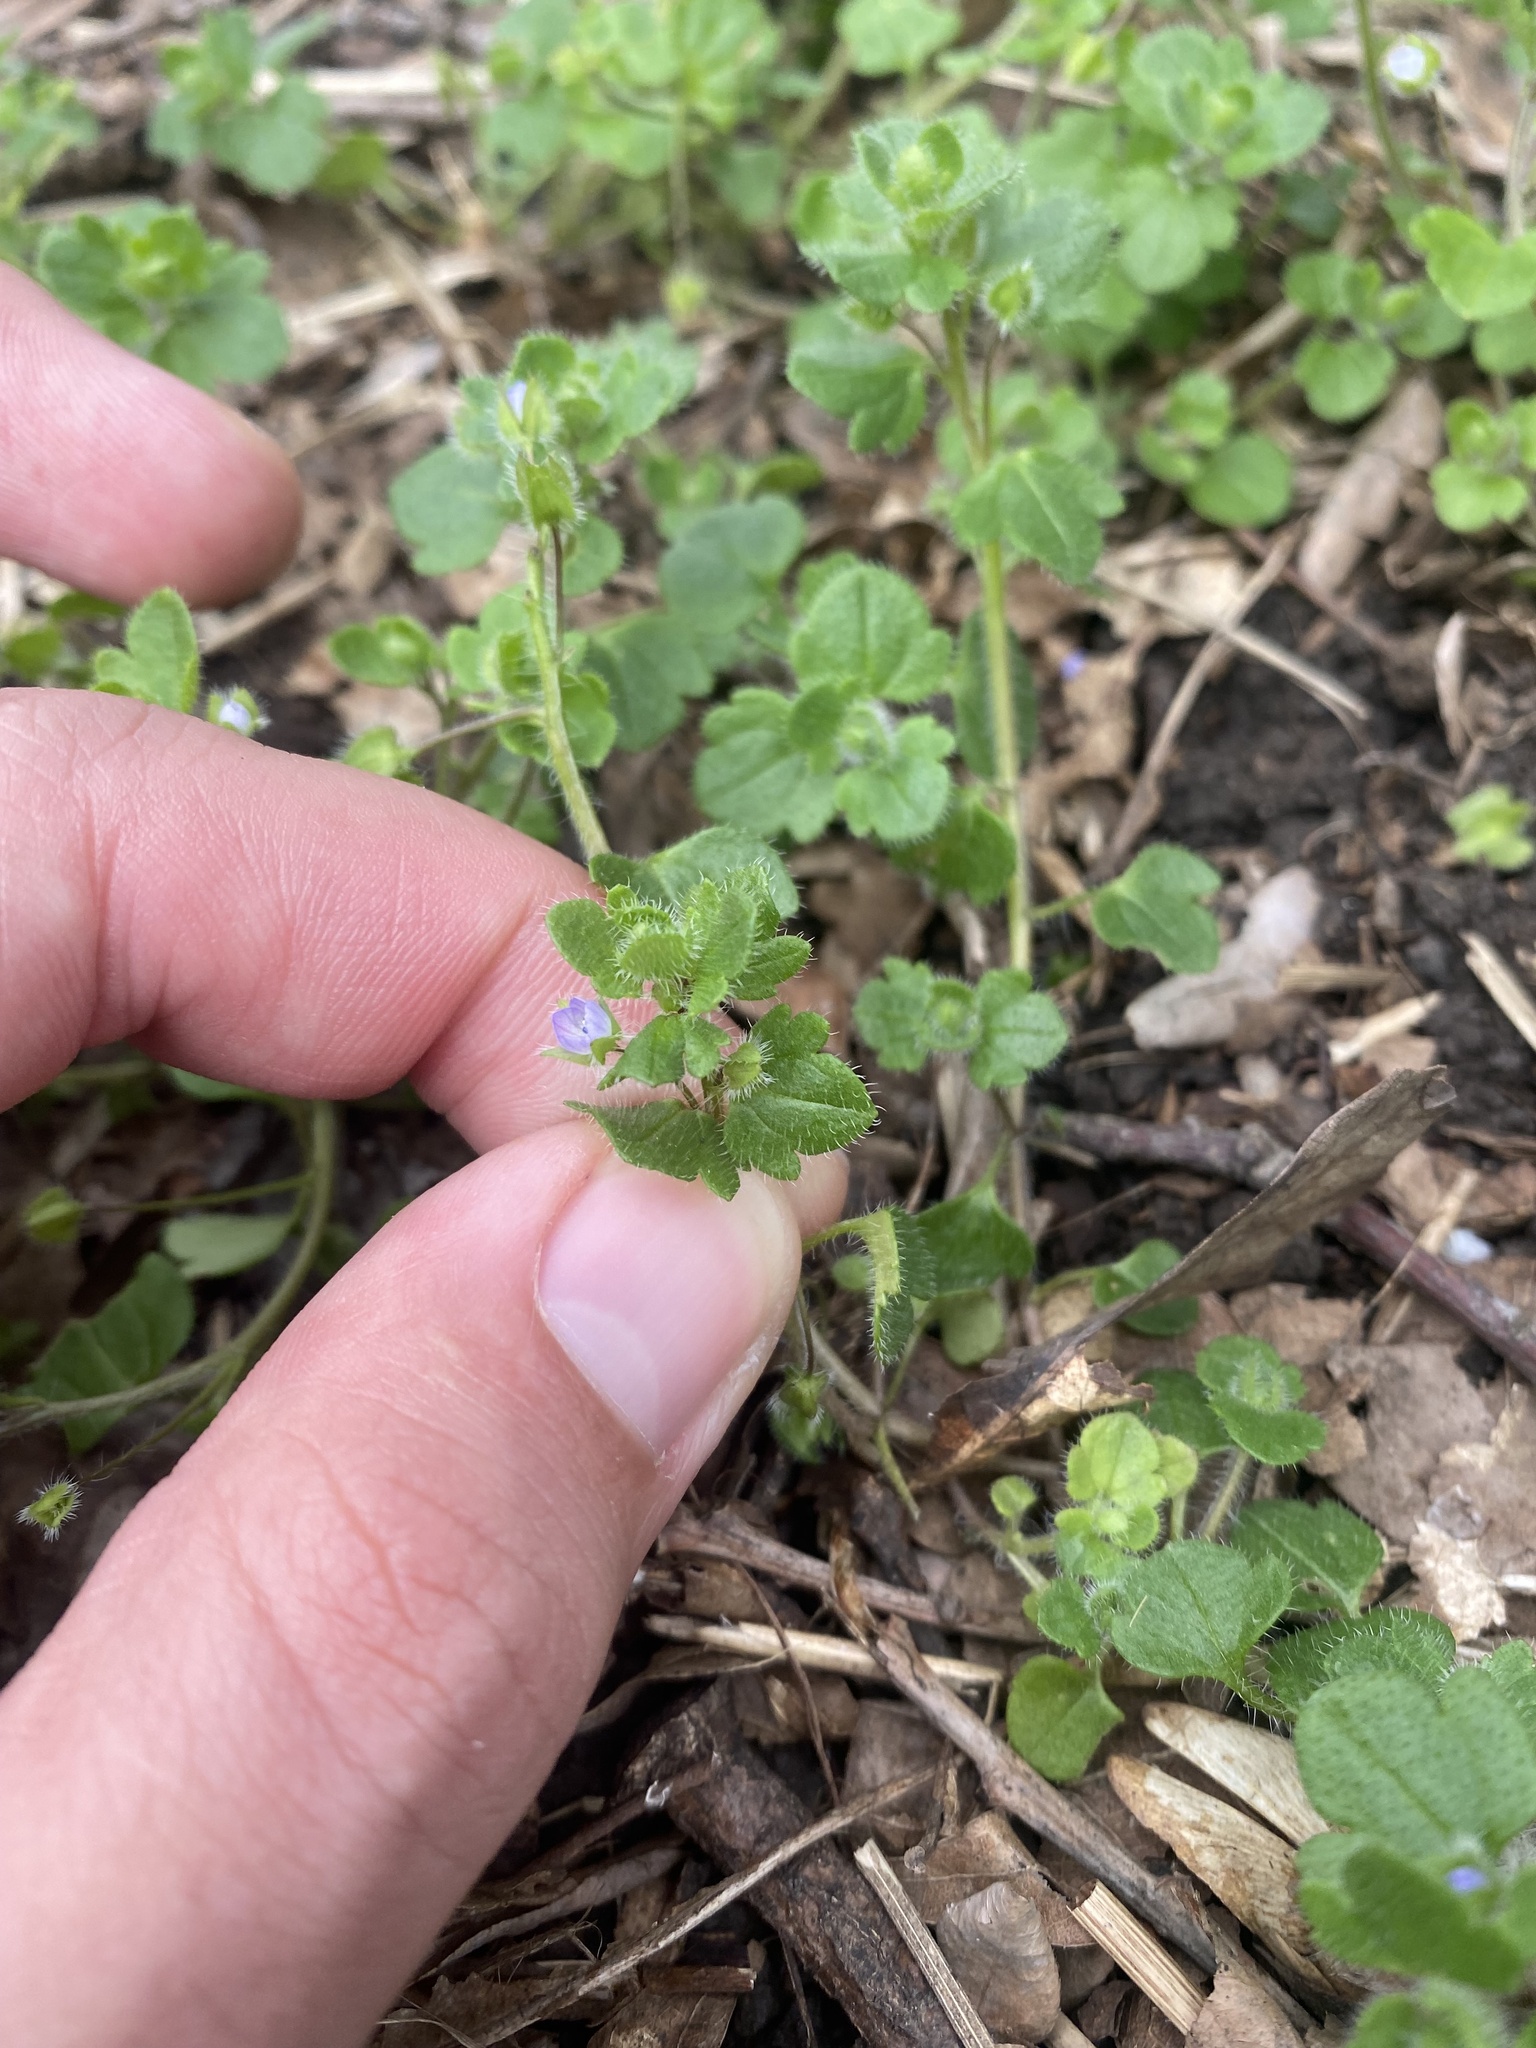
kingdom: Plantae
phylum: Tracheophyta
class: Magnoliopsida
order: Lamiales
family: Plantaginaceae
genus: Veronica
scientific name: Veronica hederifolia
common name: Ivy-leaved speedwell
